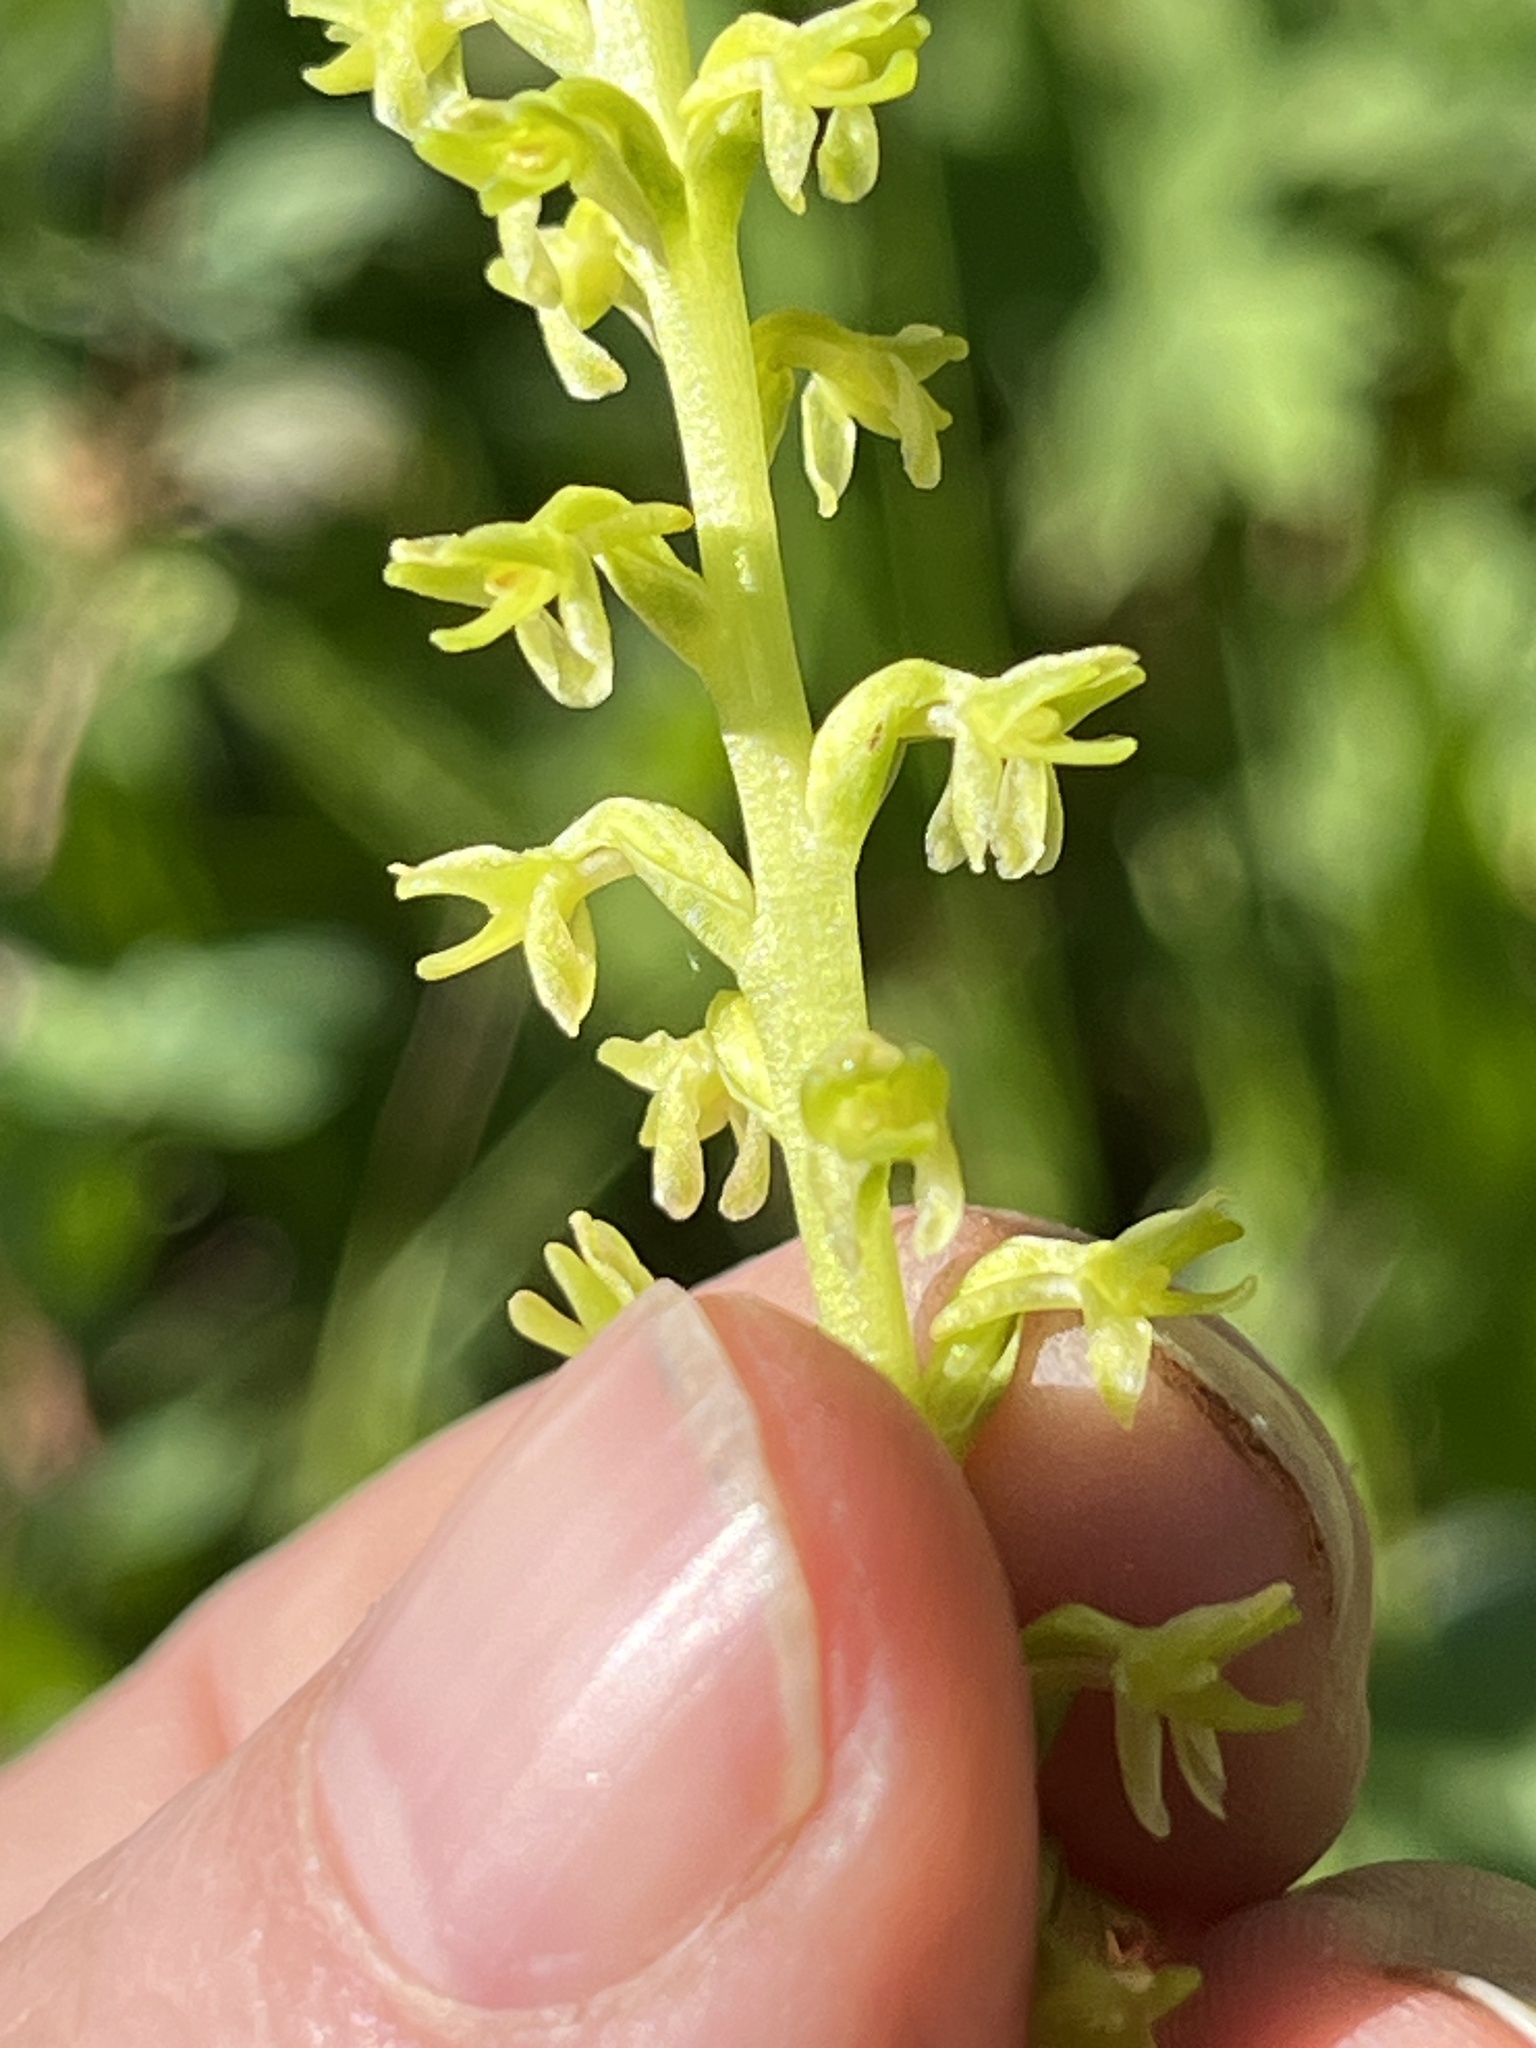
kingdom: Plantae
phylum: Tracheophyta
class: Liliopsida
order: Asparagales
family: Orchidaceae
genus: Platanthera
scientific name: Platanthera unalascensis
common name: Alaska bog orchid
